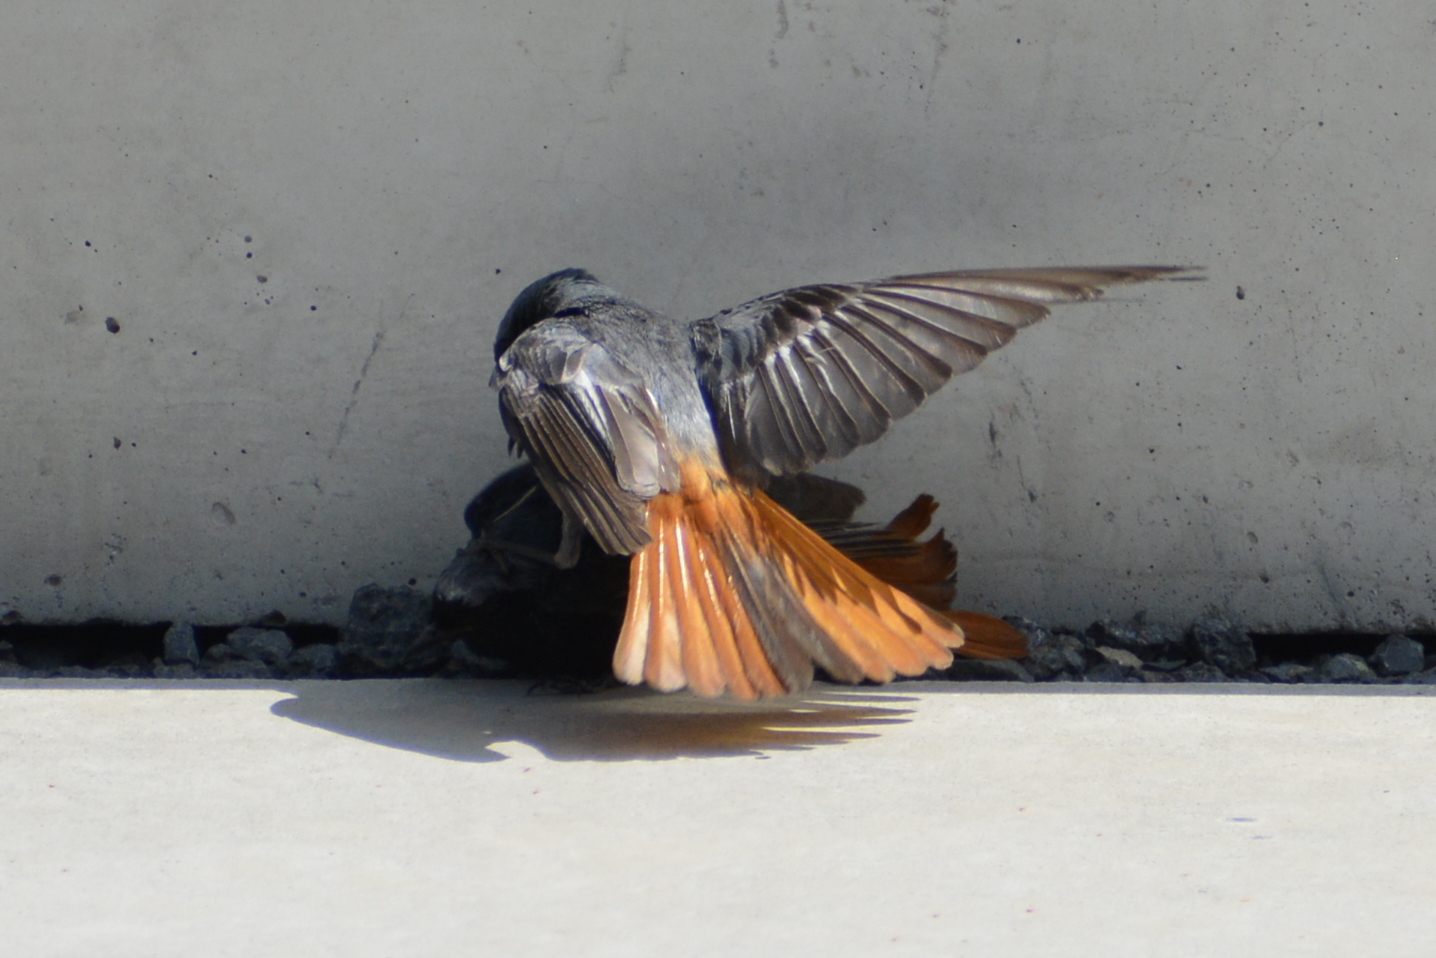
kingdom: Animalia
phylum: Chordata
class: Aves
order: Passeriformes
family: Muscicapidae
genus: Phoenicurus
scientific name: Phoenicurus ochruros
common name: Black redstart
